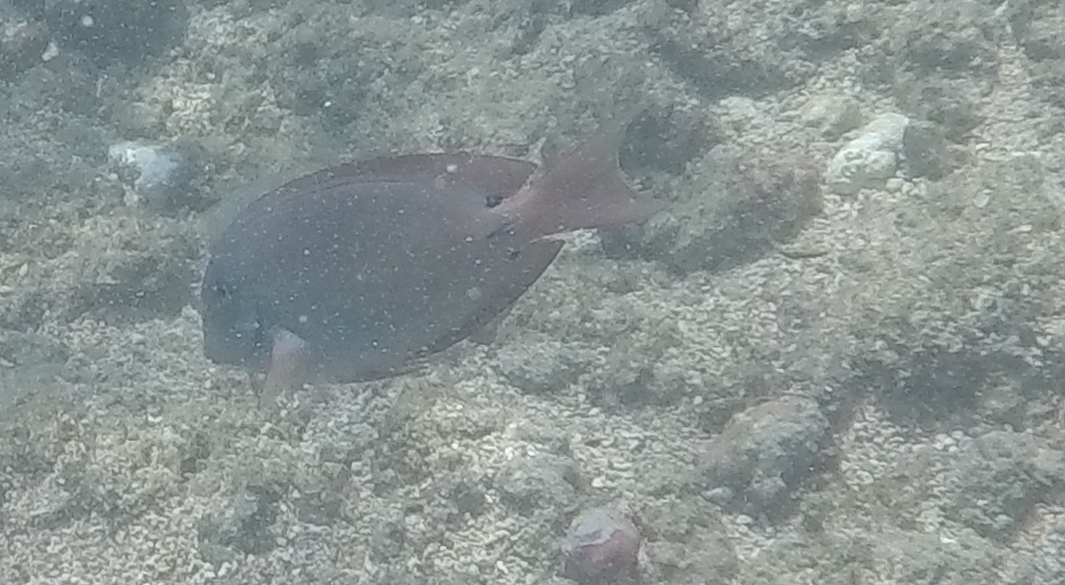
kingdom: Animalia
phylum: Chordata
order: Perciformes
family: Acanthuridae
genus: Acanthurus
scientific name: Acanthurus nigrofuscus
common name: Blackspot surgeonfish
